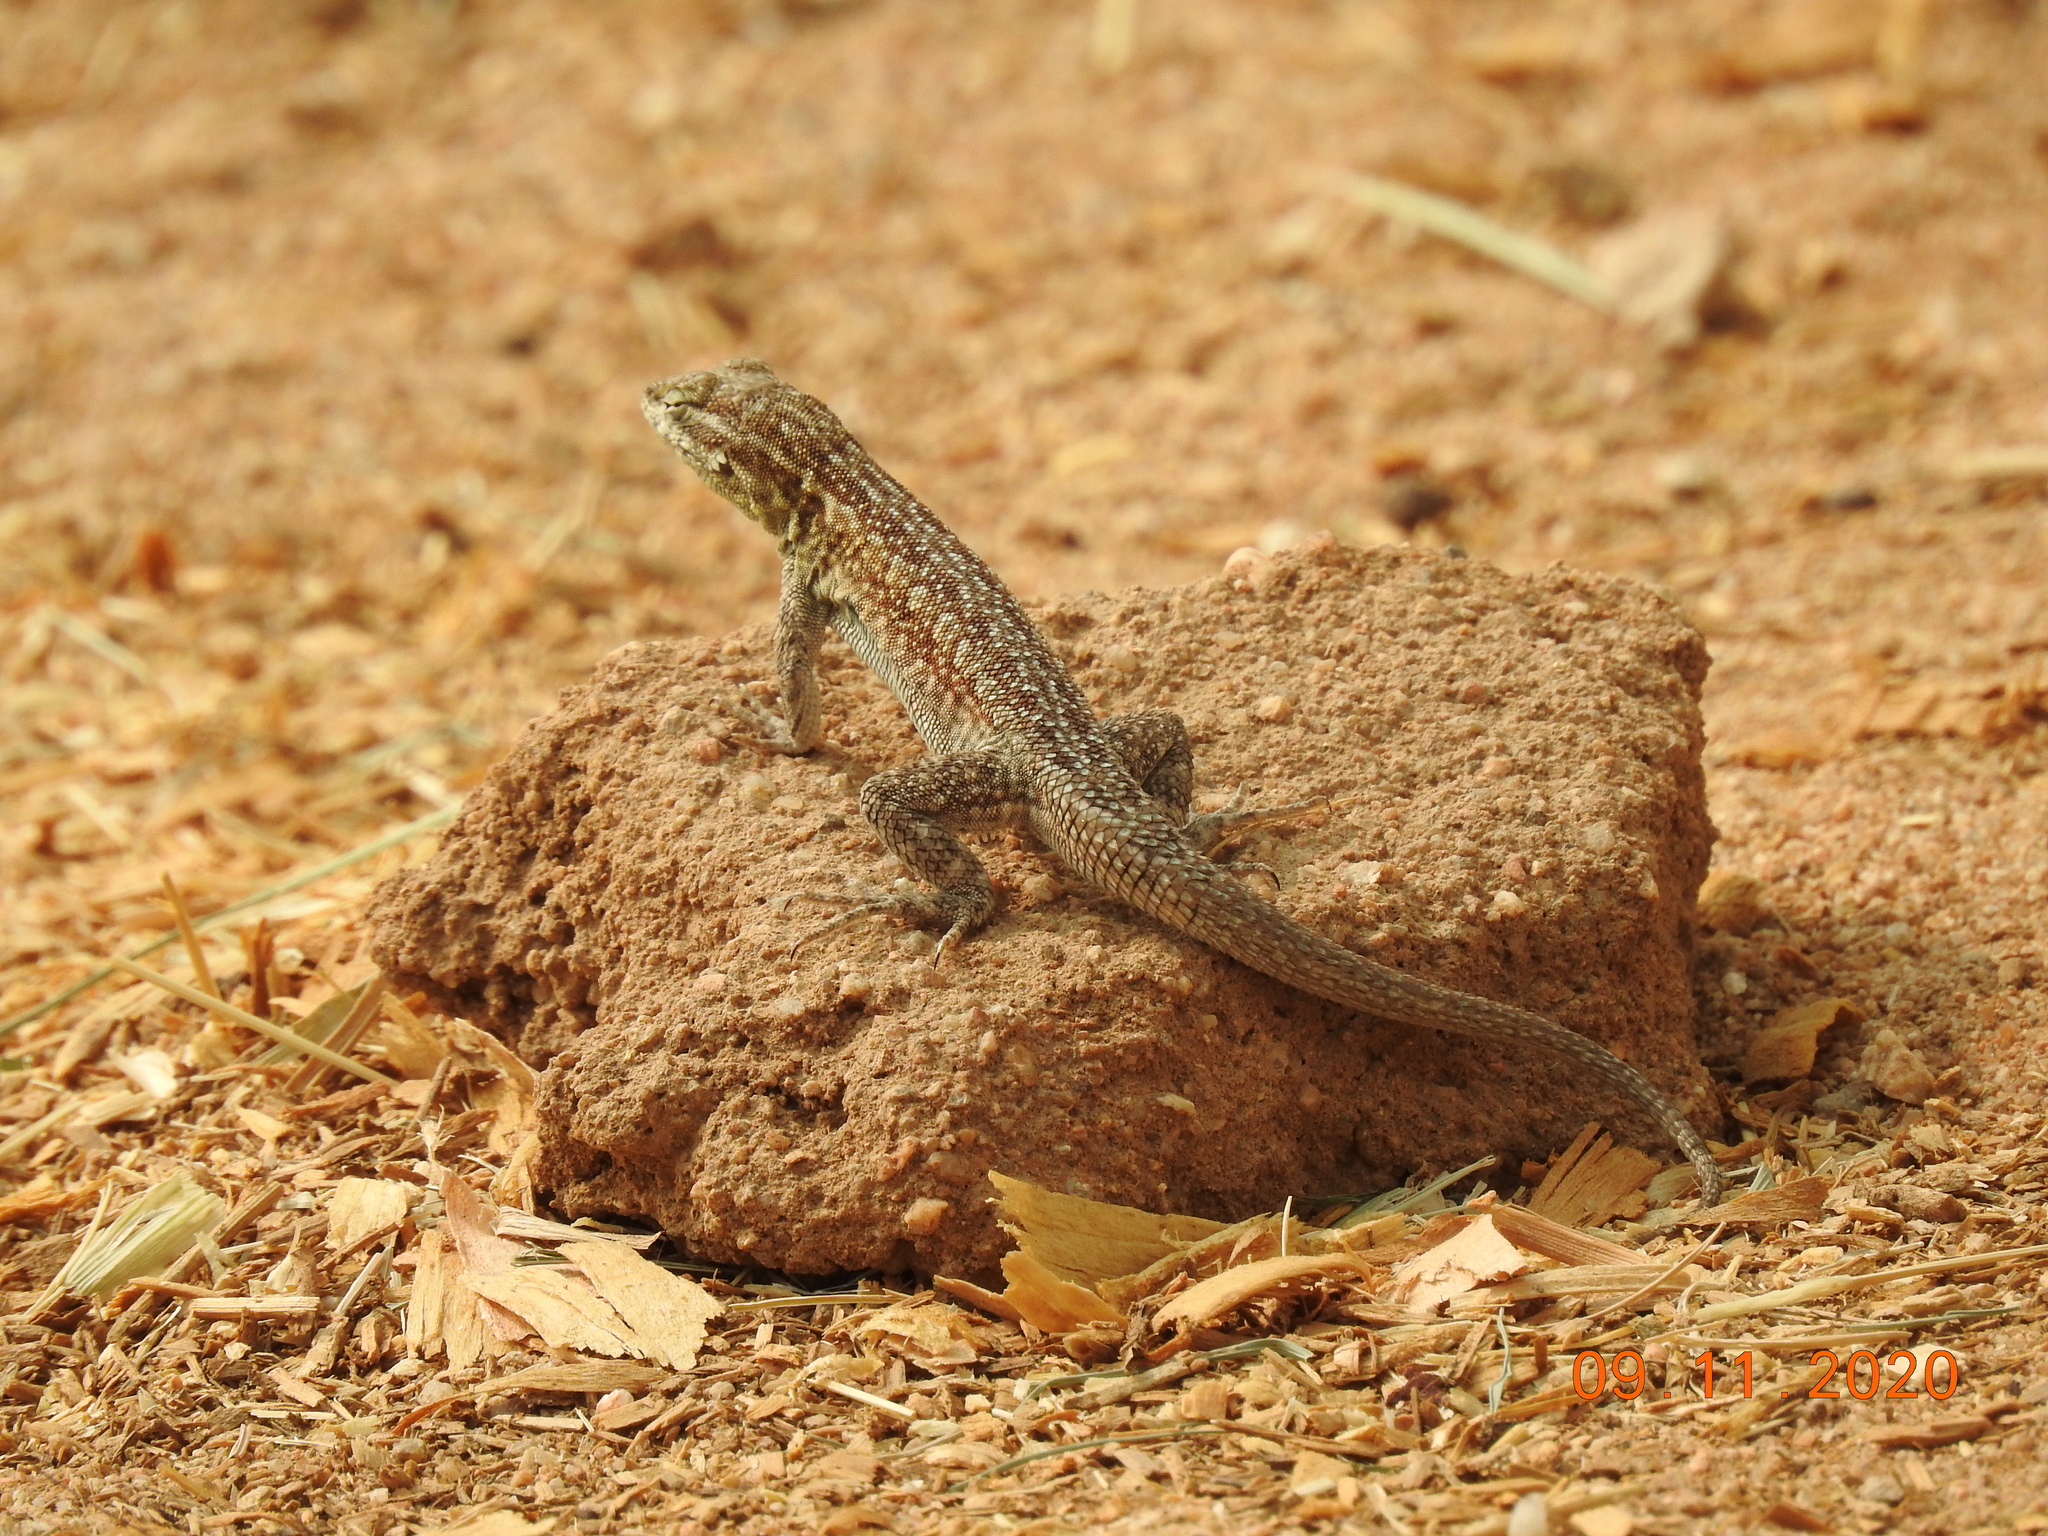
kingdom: Animalia
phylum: Chordata
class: Squamata
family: Phrynosomatidae
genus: Uta
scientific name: Uta stansburiana
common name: Side-blotched lizard
